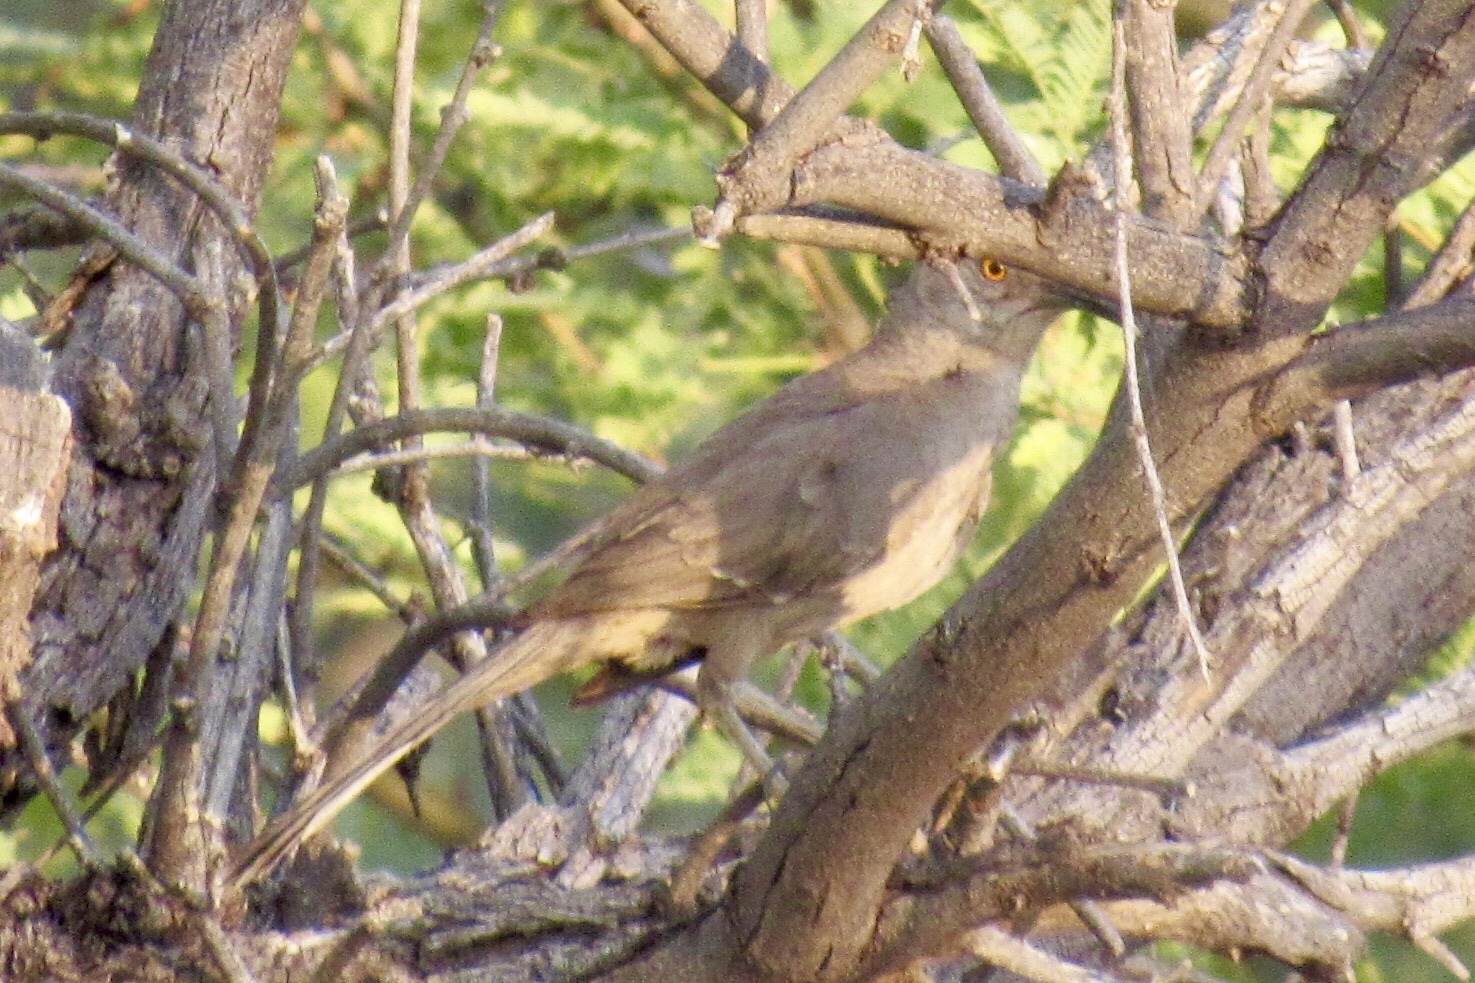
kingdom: Animalia
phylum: Chordata
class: Aves
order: Passeriformes
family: Mimidae
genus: Toxostoma
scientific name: Toxostoma curvirostre
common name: Curve-billed thrasher
